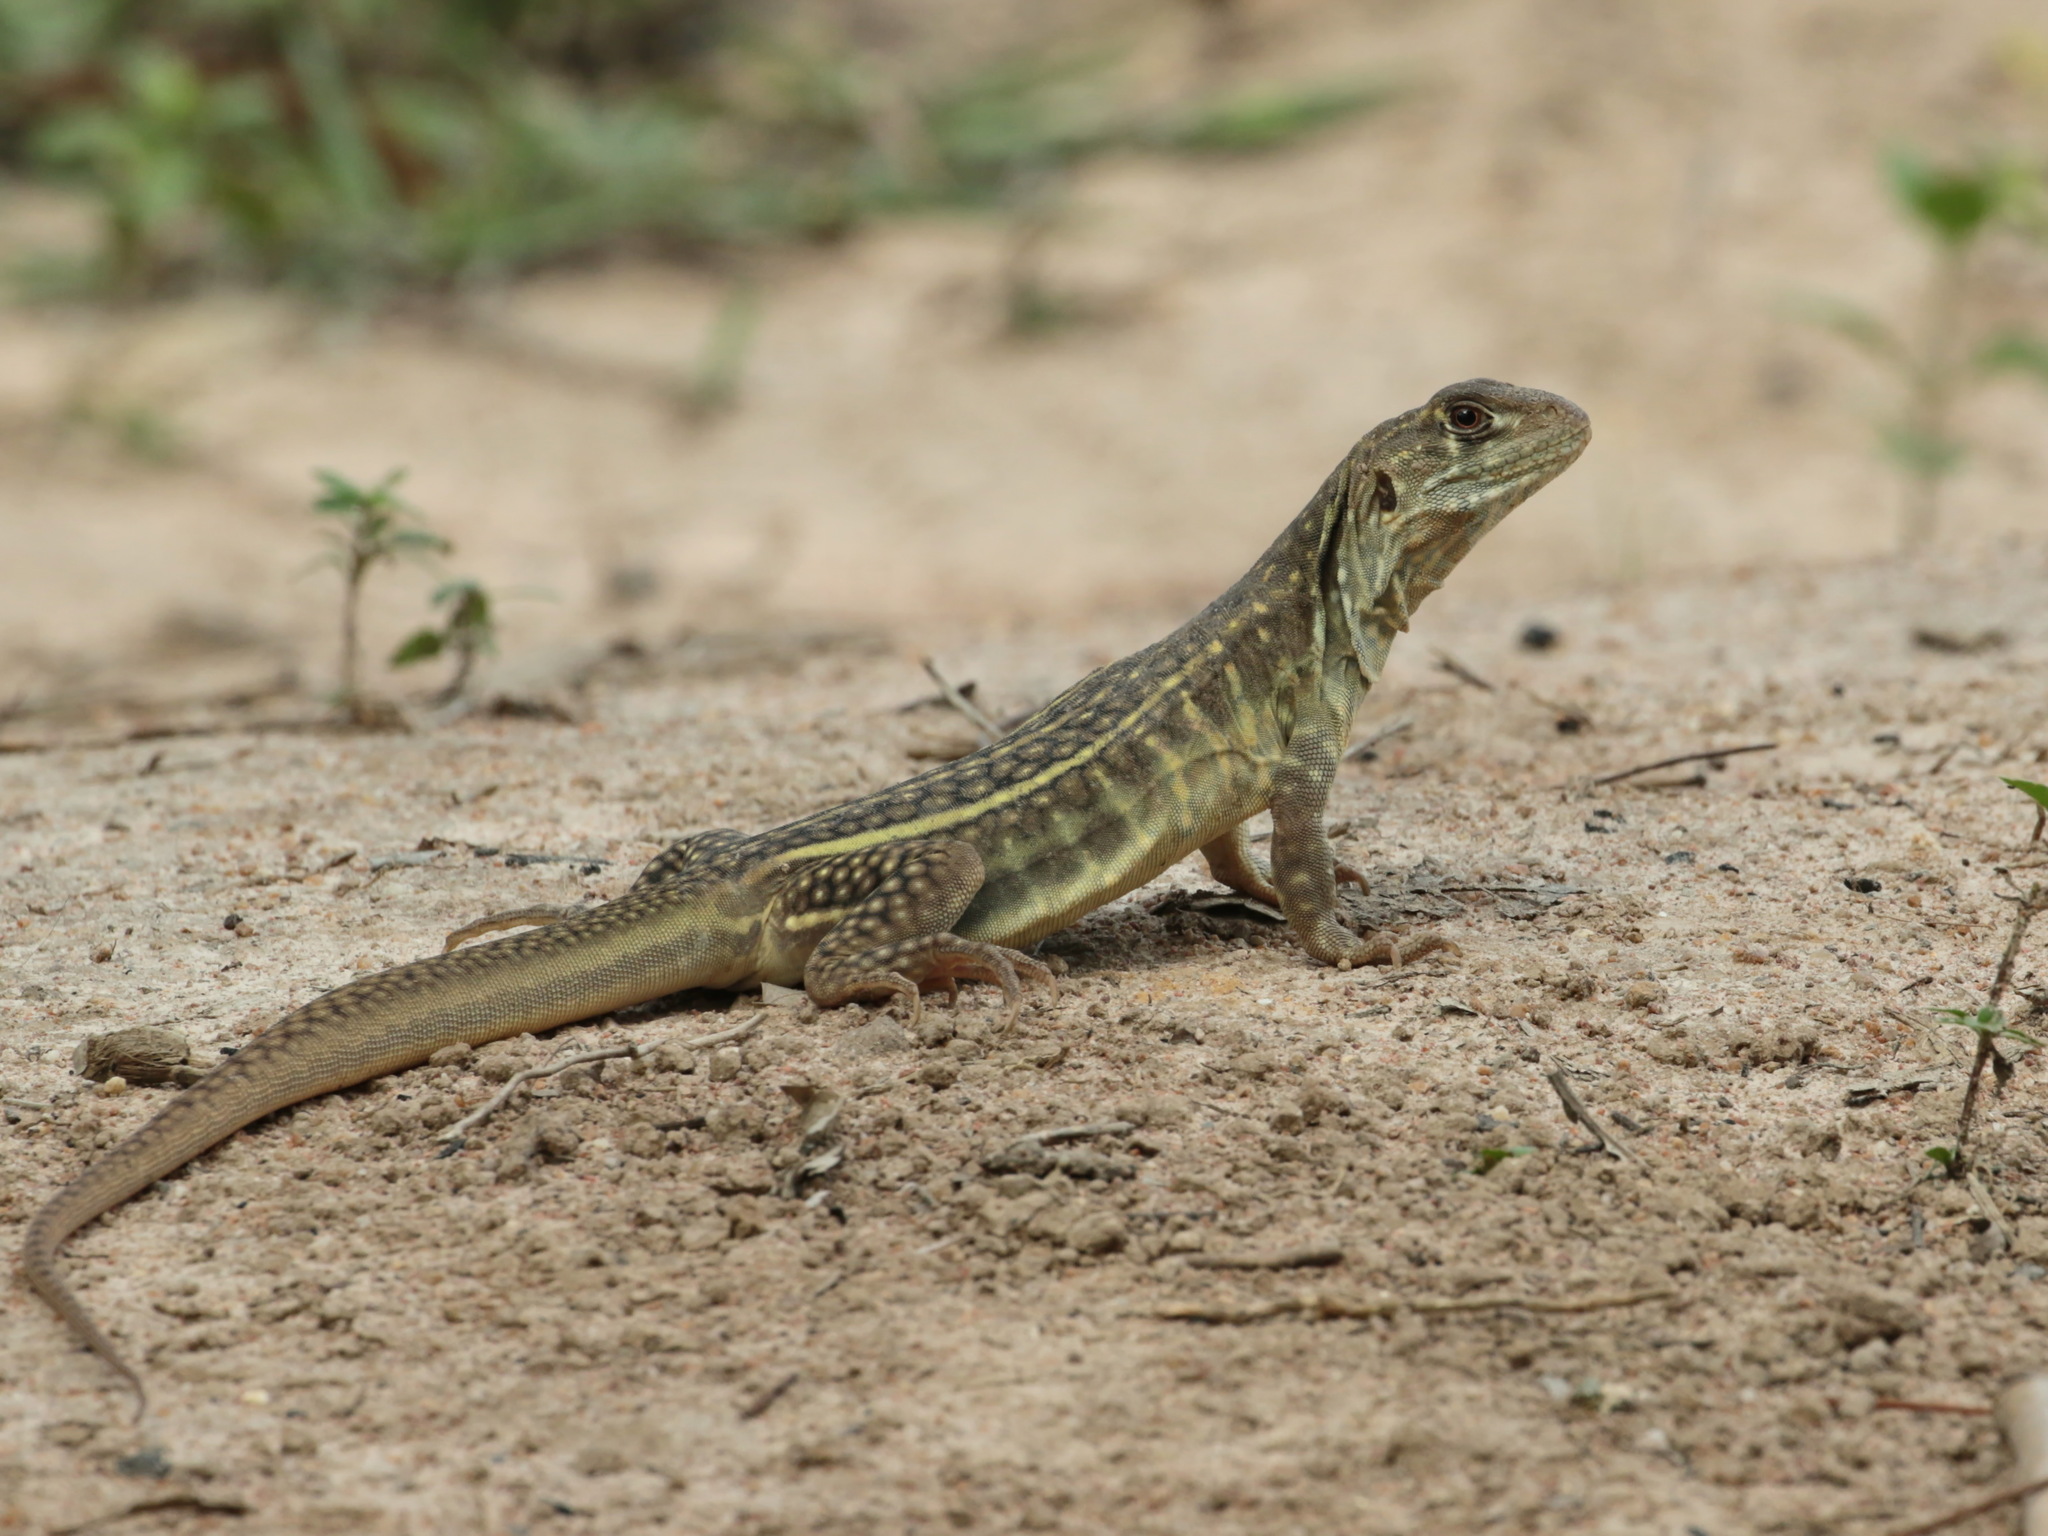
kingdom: Animalia
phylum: Chordata
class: Squamata
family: Agamidae
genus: Leiolepis
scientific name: Leiolepis triploida
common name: Malaysian butterfly lizard
